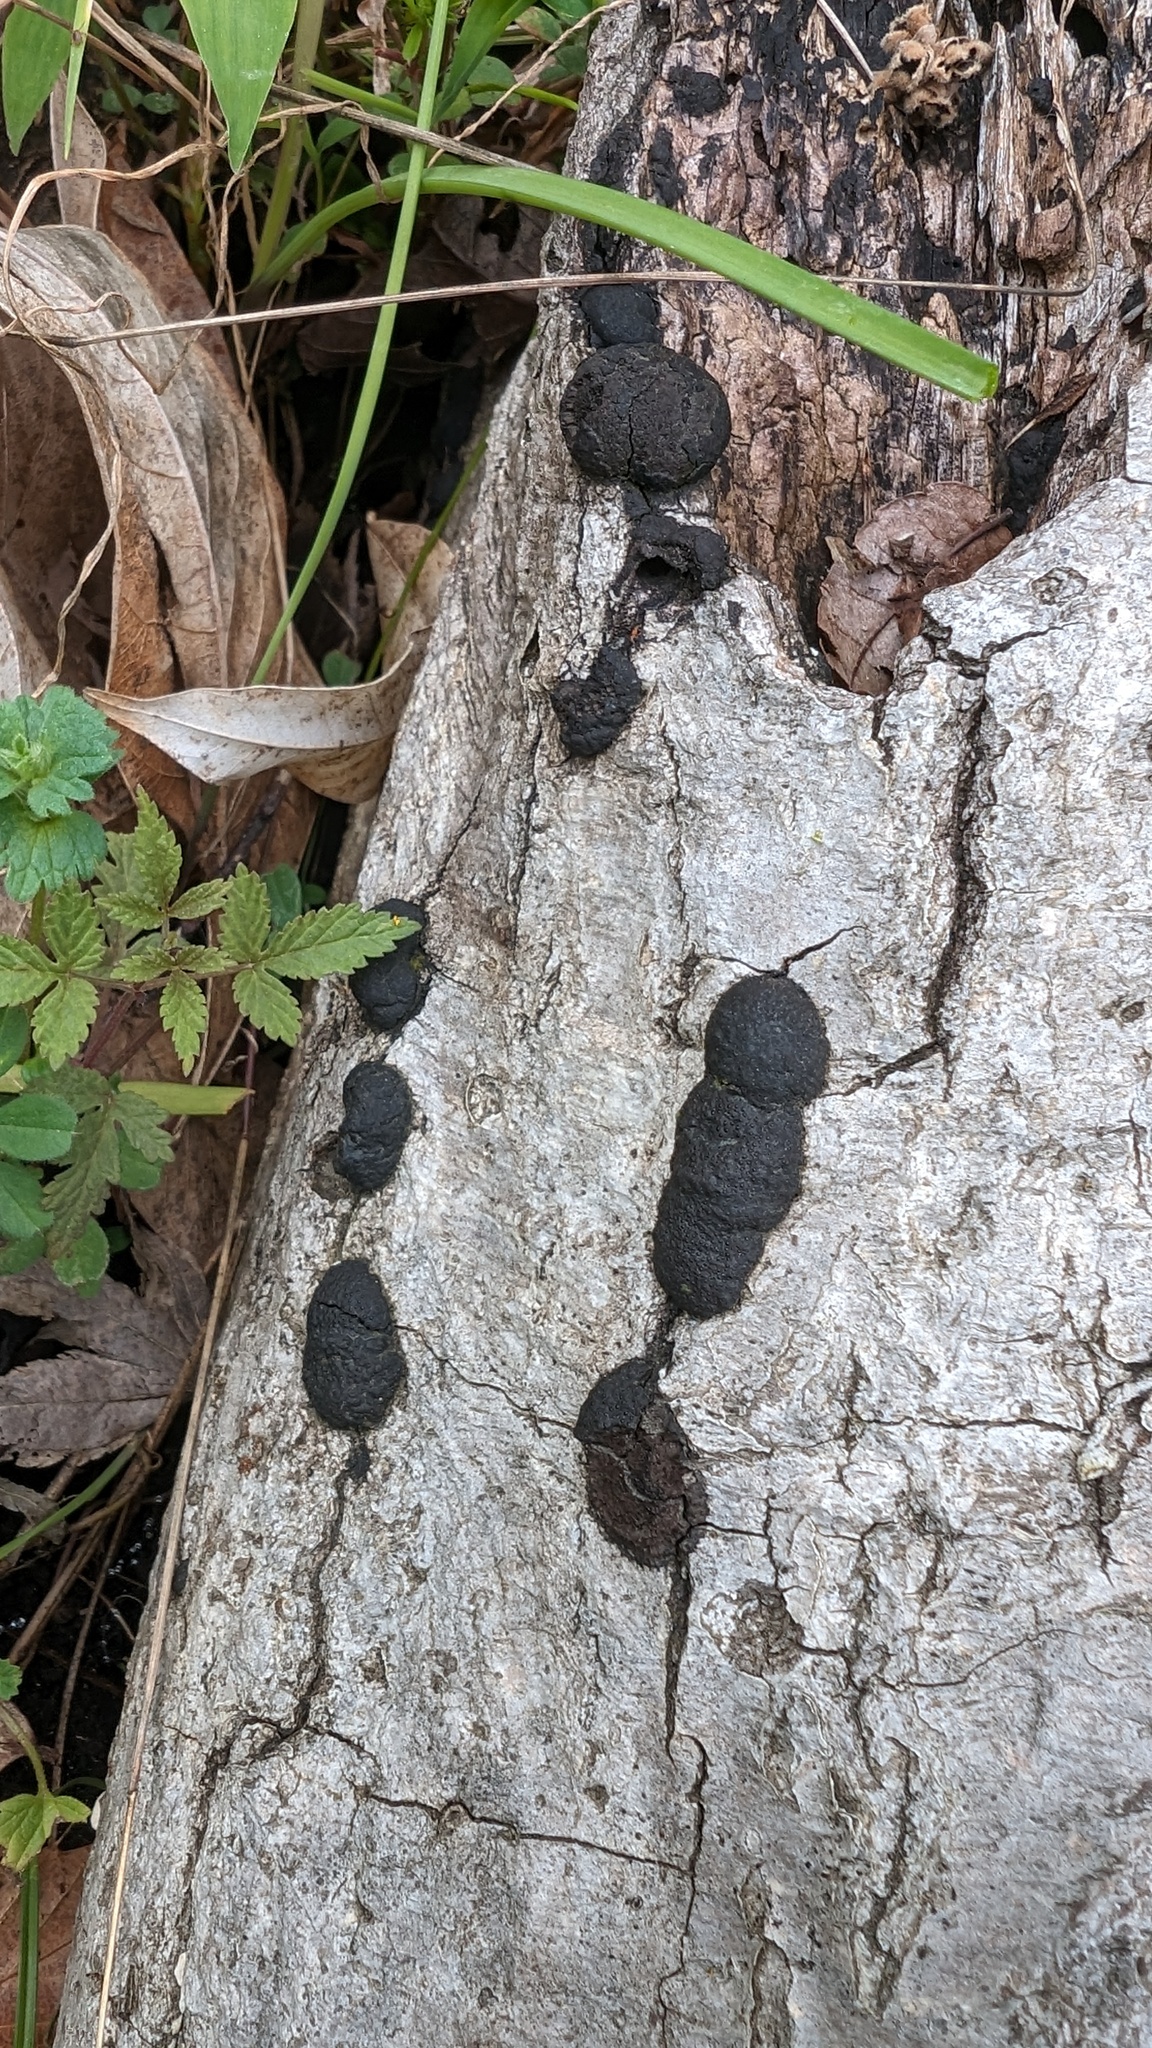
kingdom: Fungi
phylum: Ascomycota
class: Sordariomycetes
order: Xylariales
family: Hypoxylaceae
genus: Annulohypoxylon
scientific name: Annulohypoxylon truncatum
